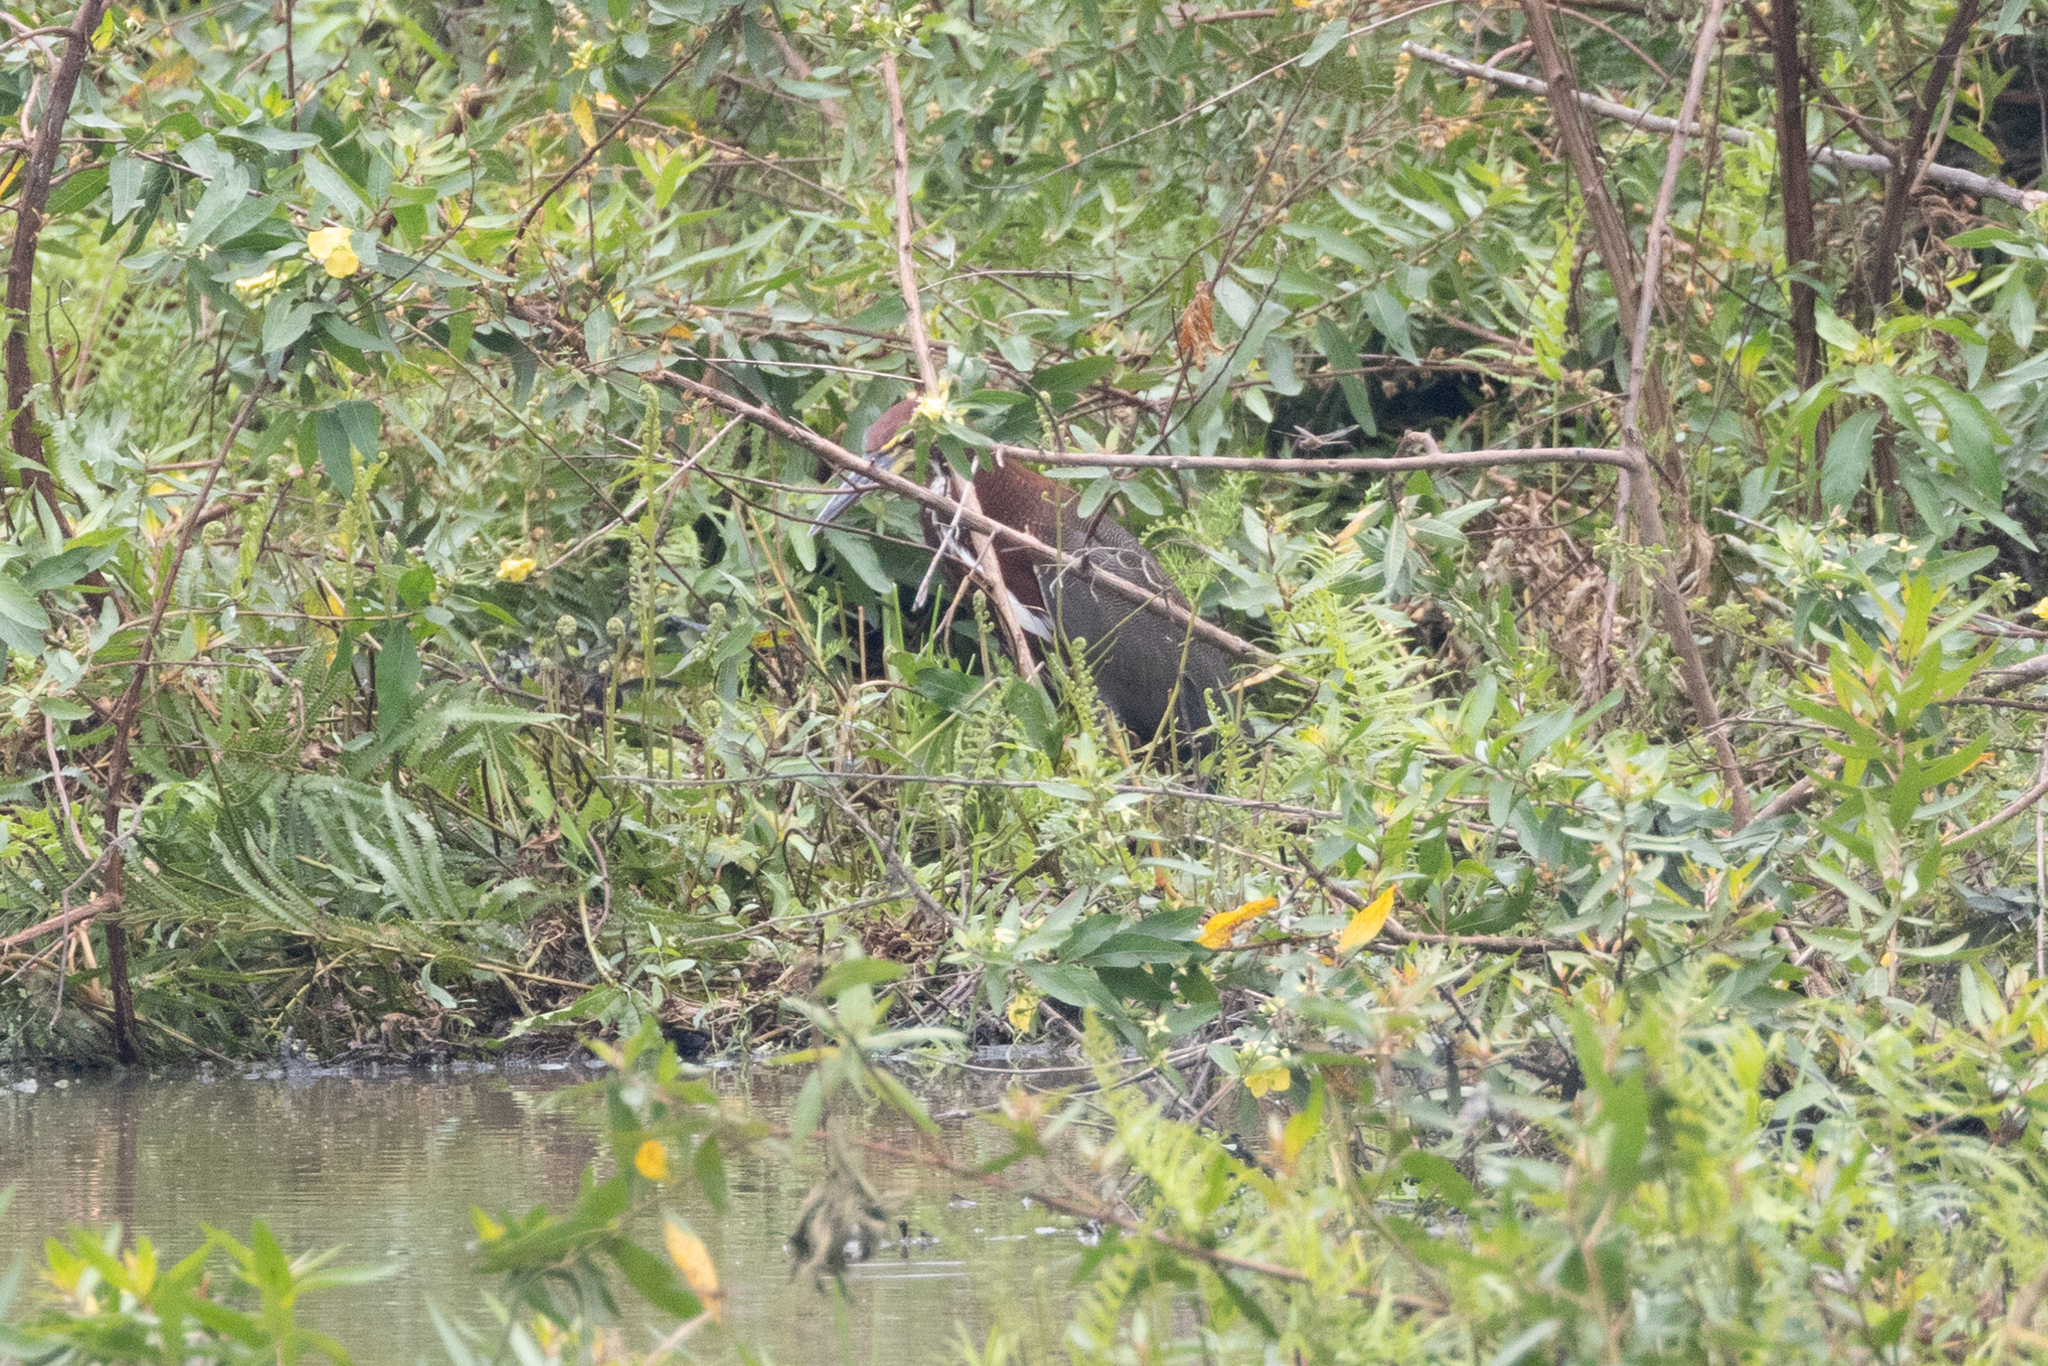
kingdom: Animalia
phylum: Chordata
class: Aves
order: Pelecaniformes
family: Ardeidae
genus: Tigrisoma
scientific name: Tigrisoma lineatum
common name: Rufescent tiger-heron
